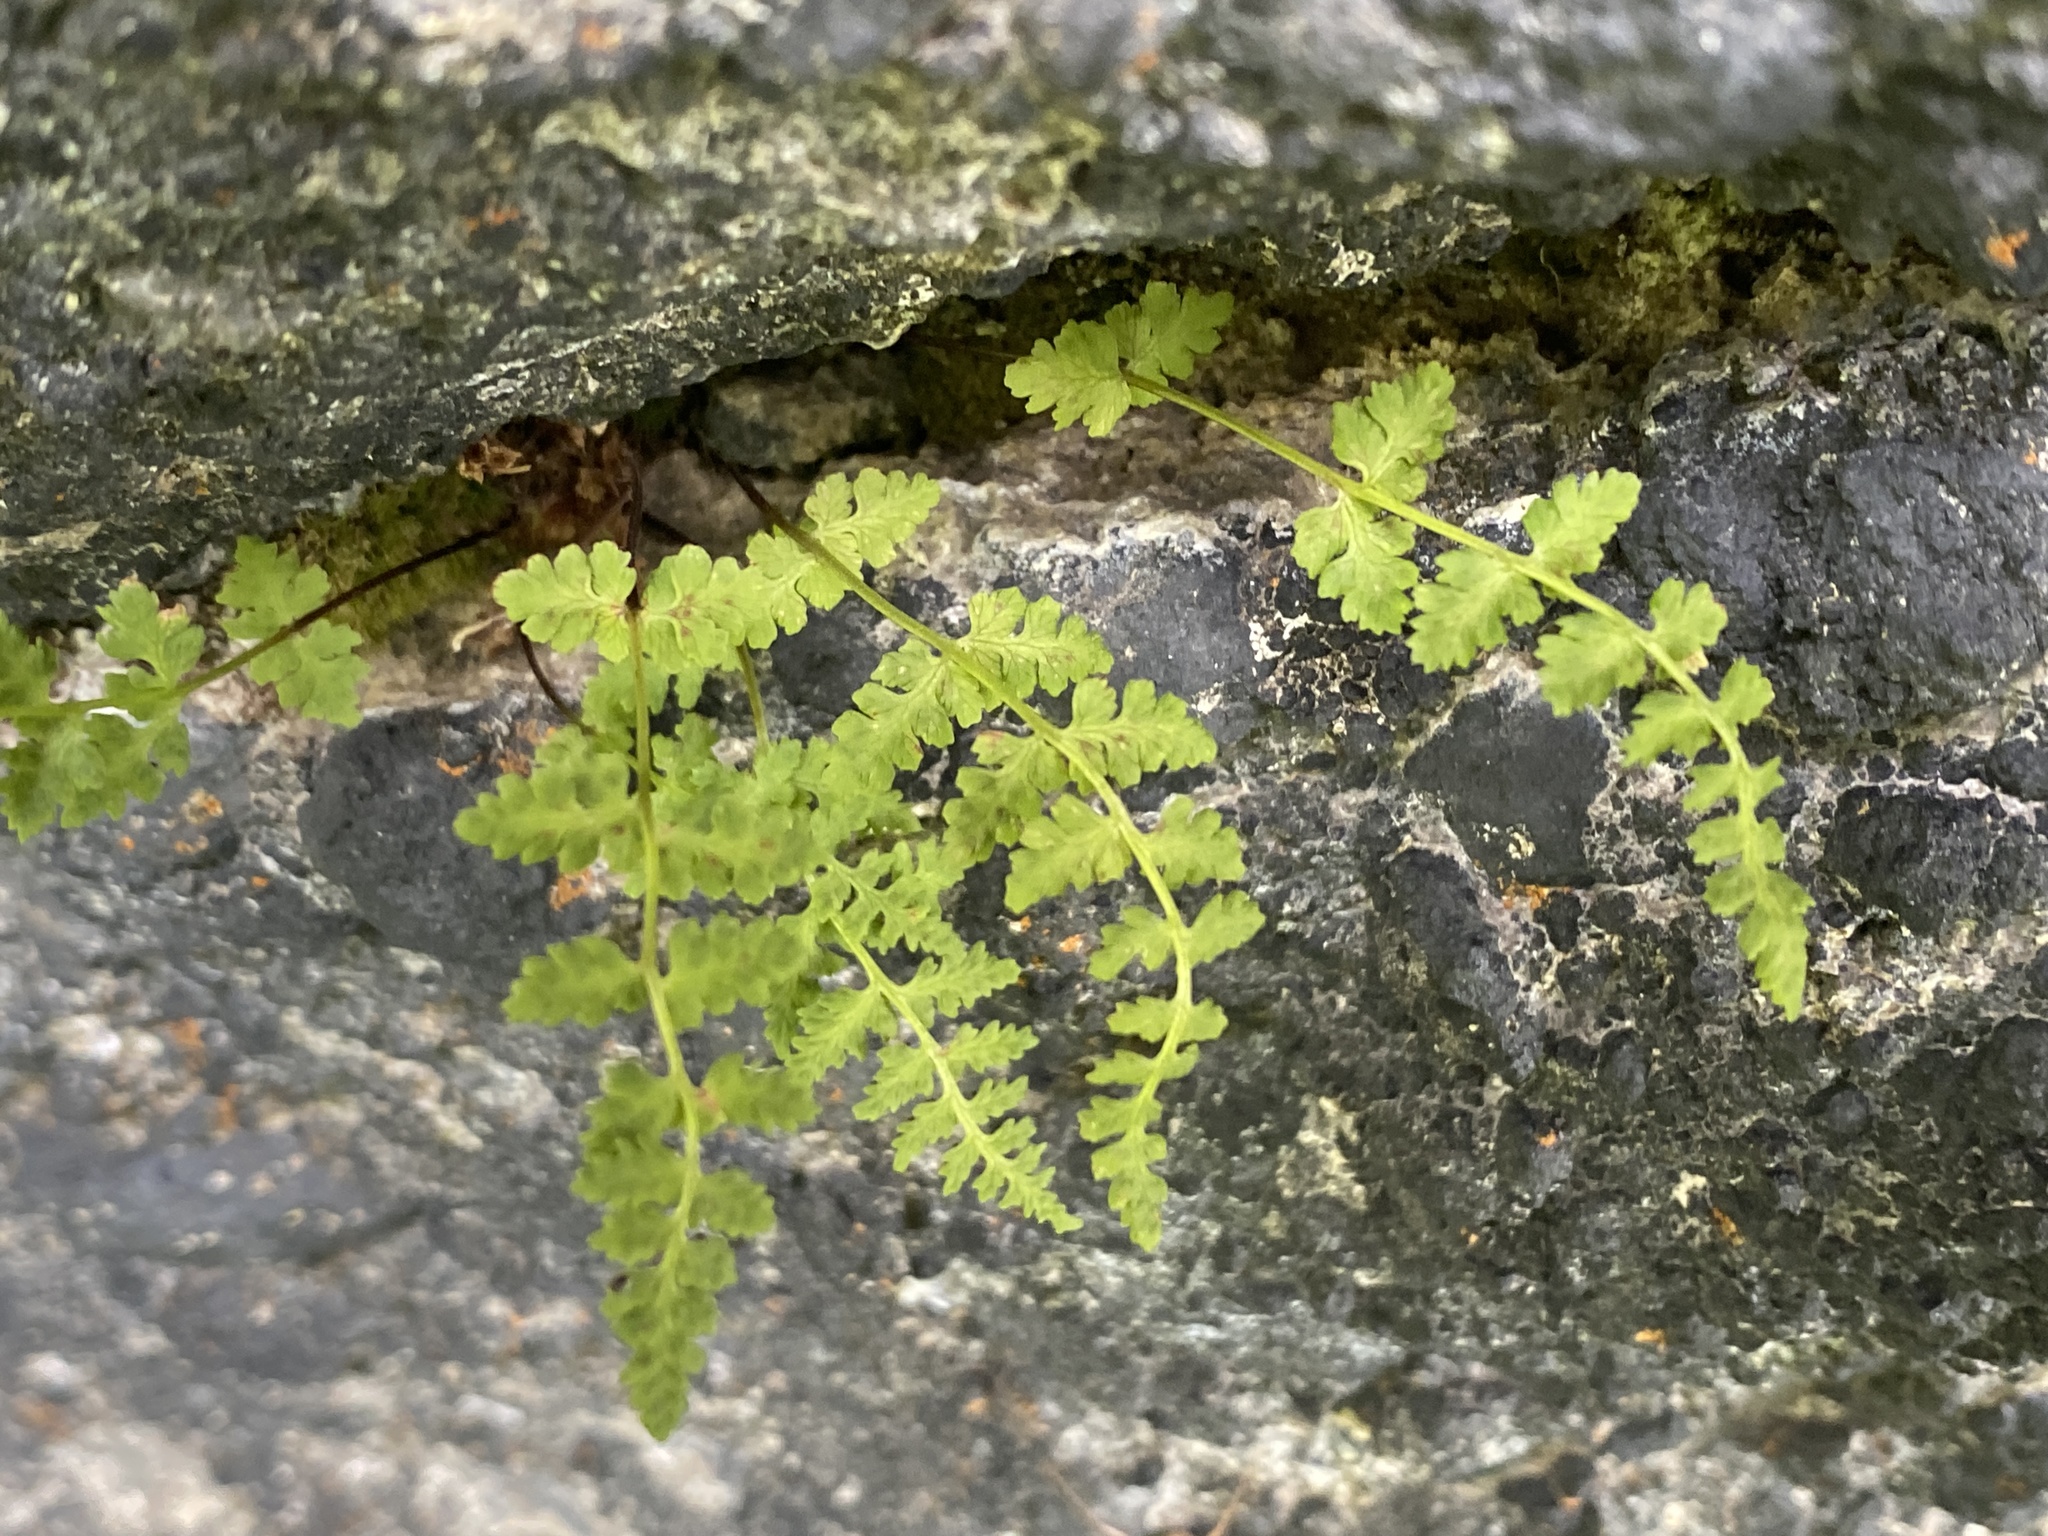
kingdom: Plantae
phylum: Tracheophyta
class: Polypodiopsida
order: Polypodiales
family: Cystopteridaceae
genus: Cystopteris
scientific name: Cystopteris fragilis
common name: Brittle bladder fern
